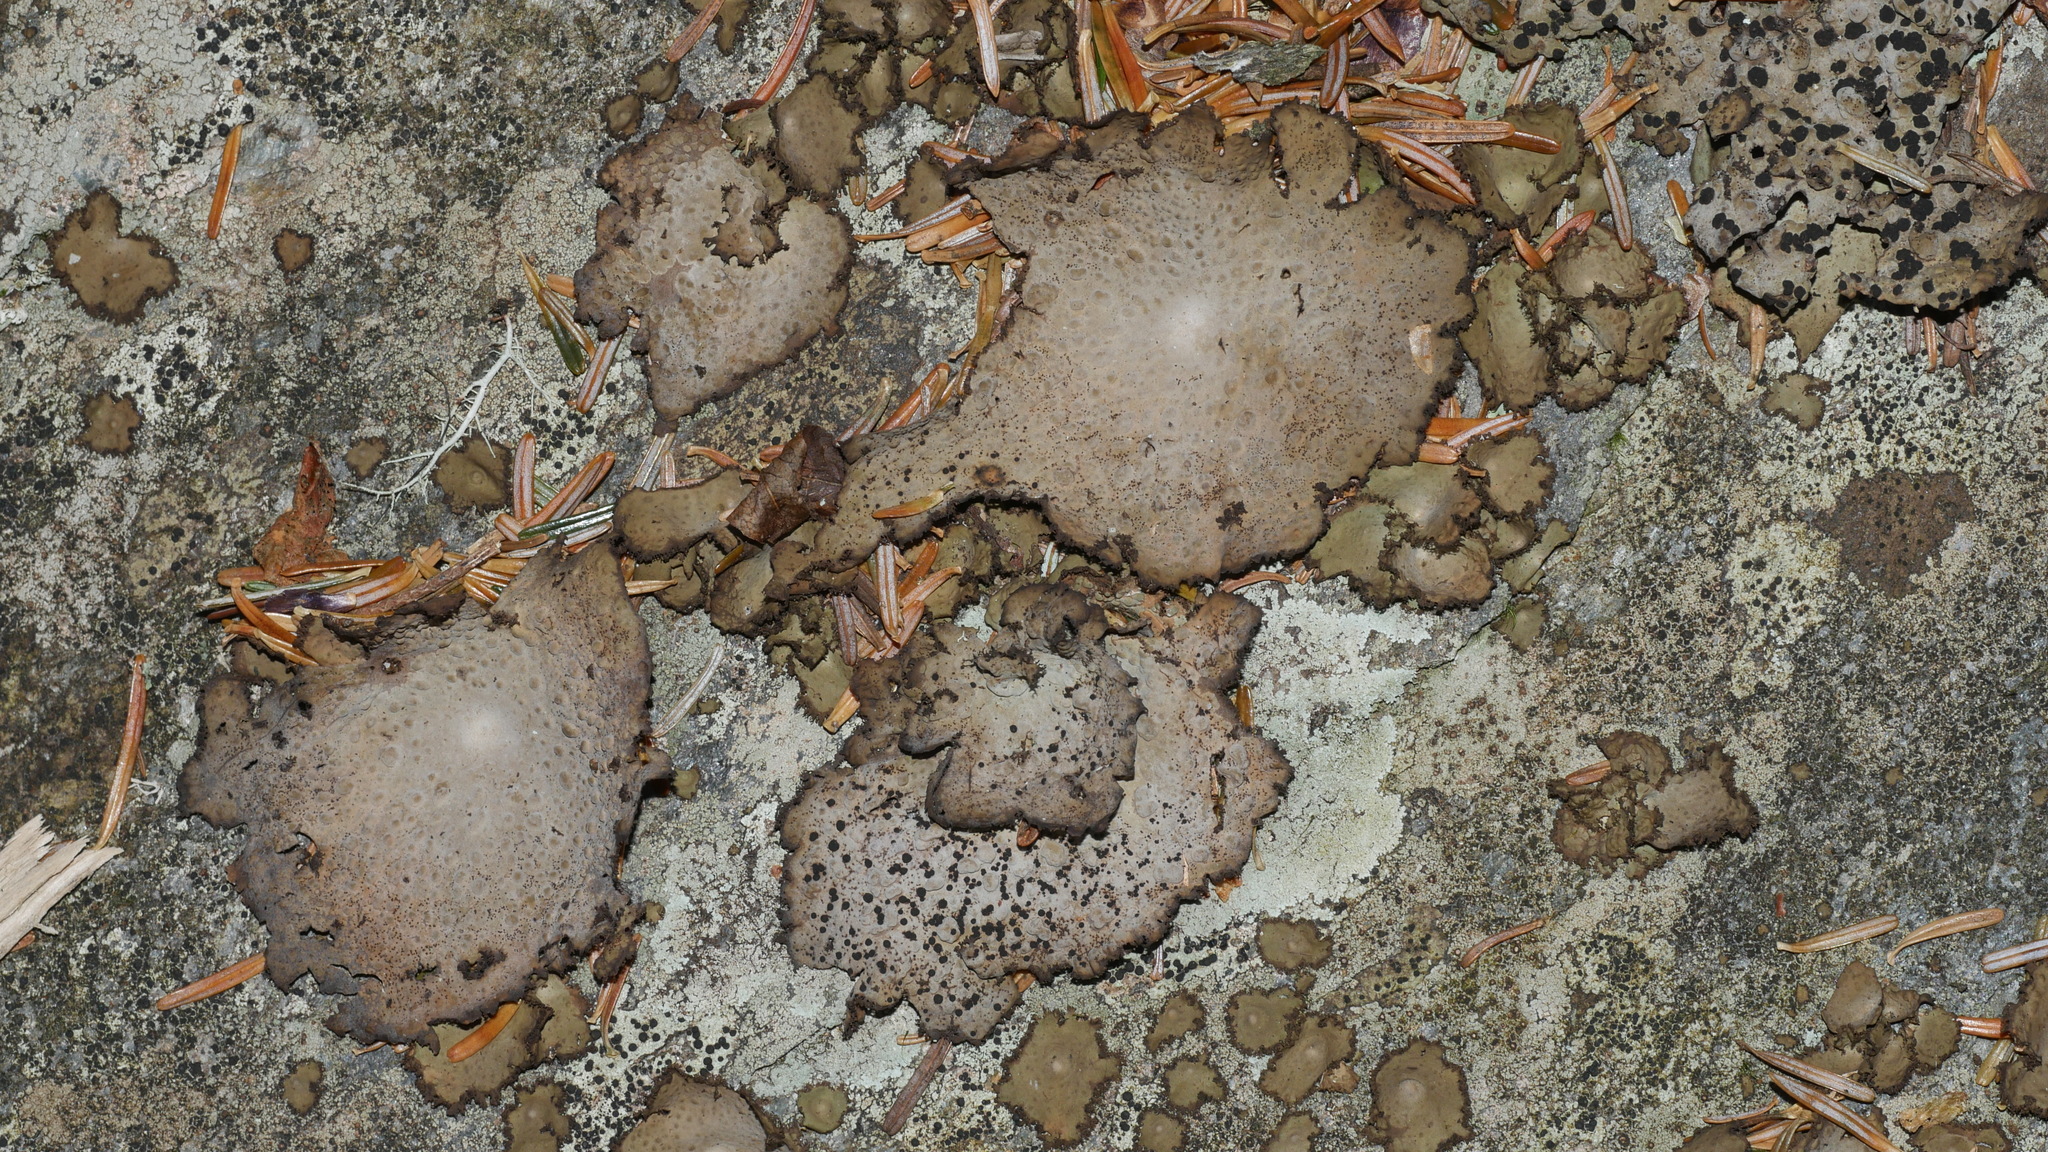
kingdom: Fungi
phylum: Ascomycota
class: Lecanoromycetes
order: Umbilicariales
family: Umbilicariaceae
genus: Lasallia
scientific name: Lasallia pensylvanica
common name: Blackened toadskin lichen
